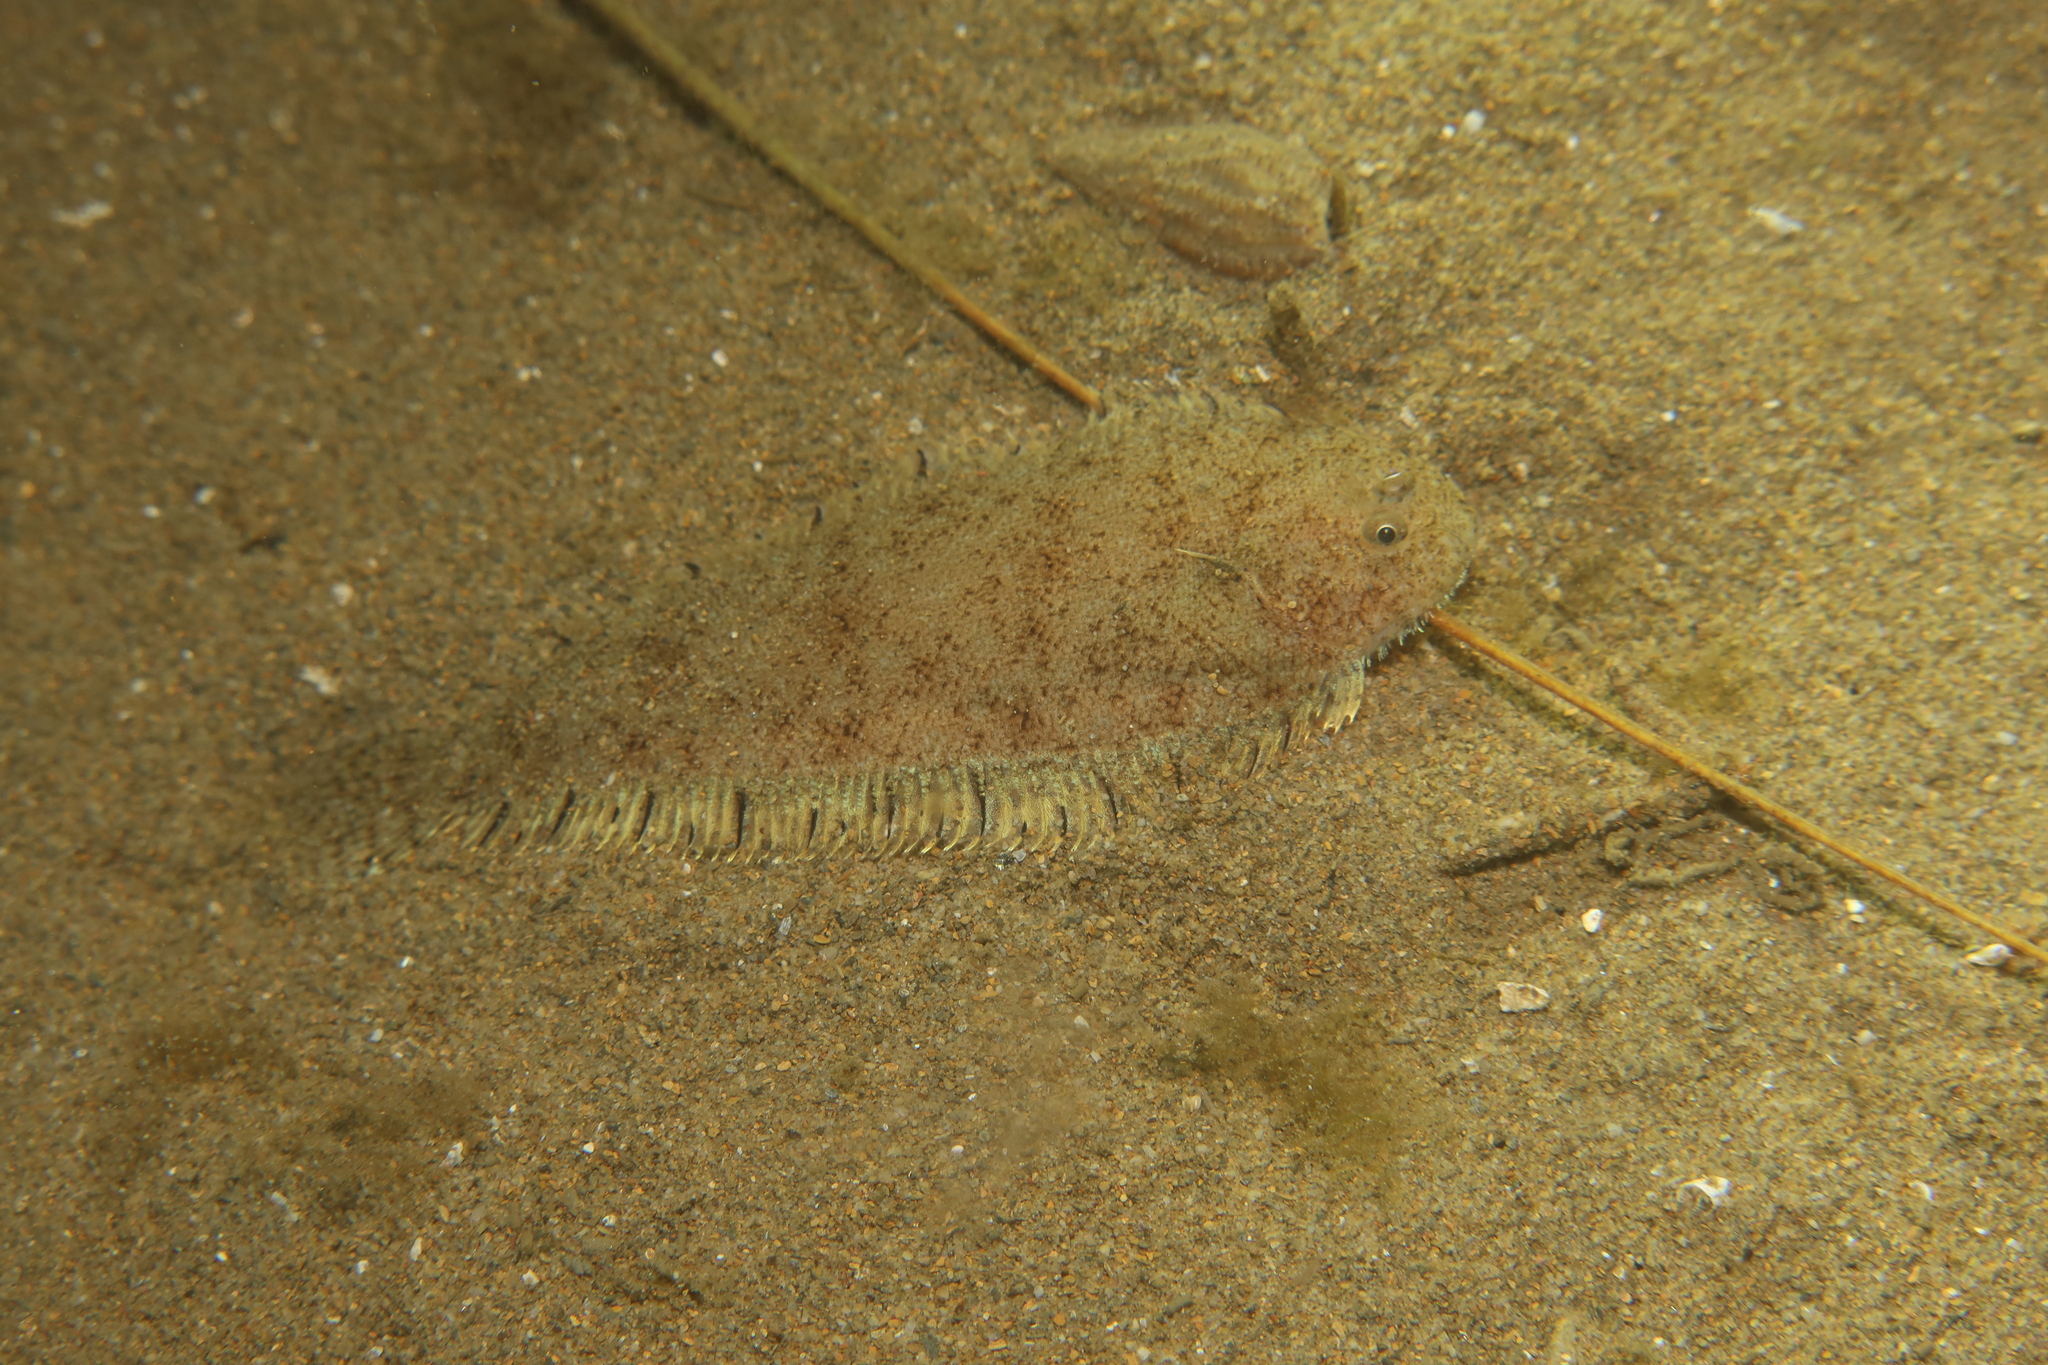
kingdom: Animalia
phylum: Chordata
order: Pleuronectiformes
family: Soleidae
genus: Buglossidium
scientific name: Buglossidium luteum
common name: Solenette
